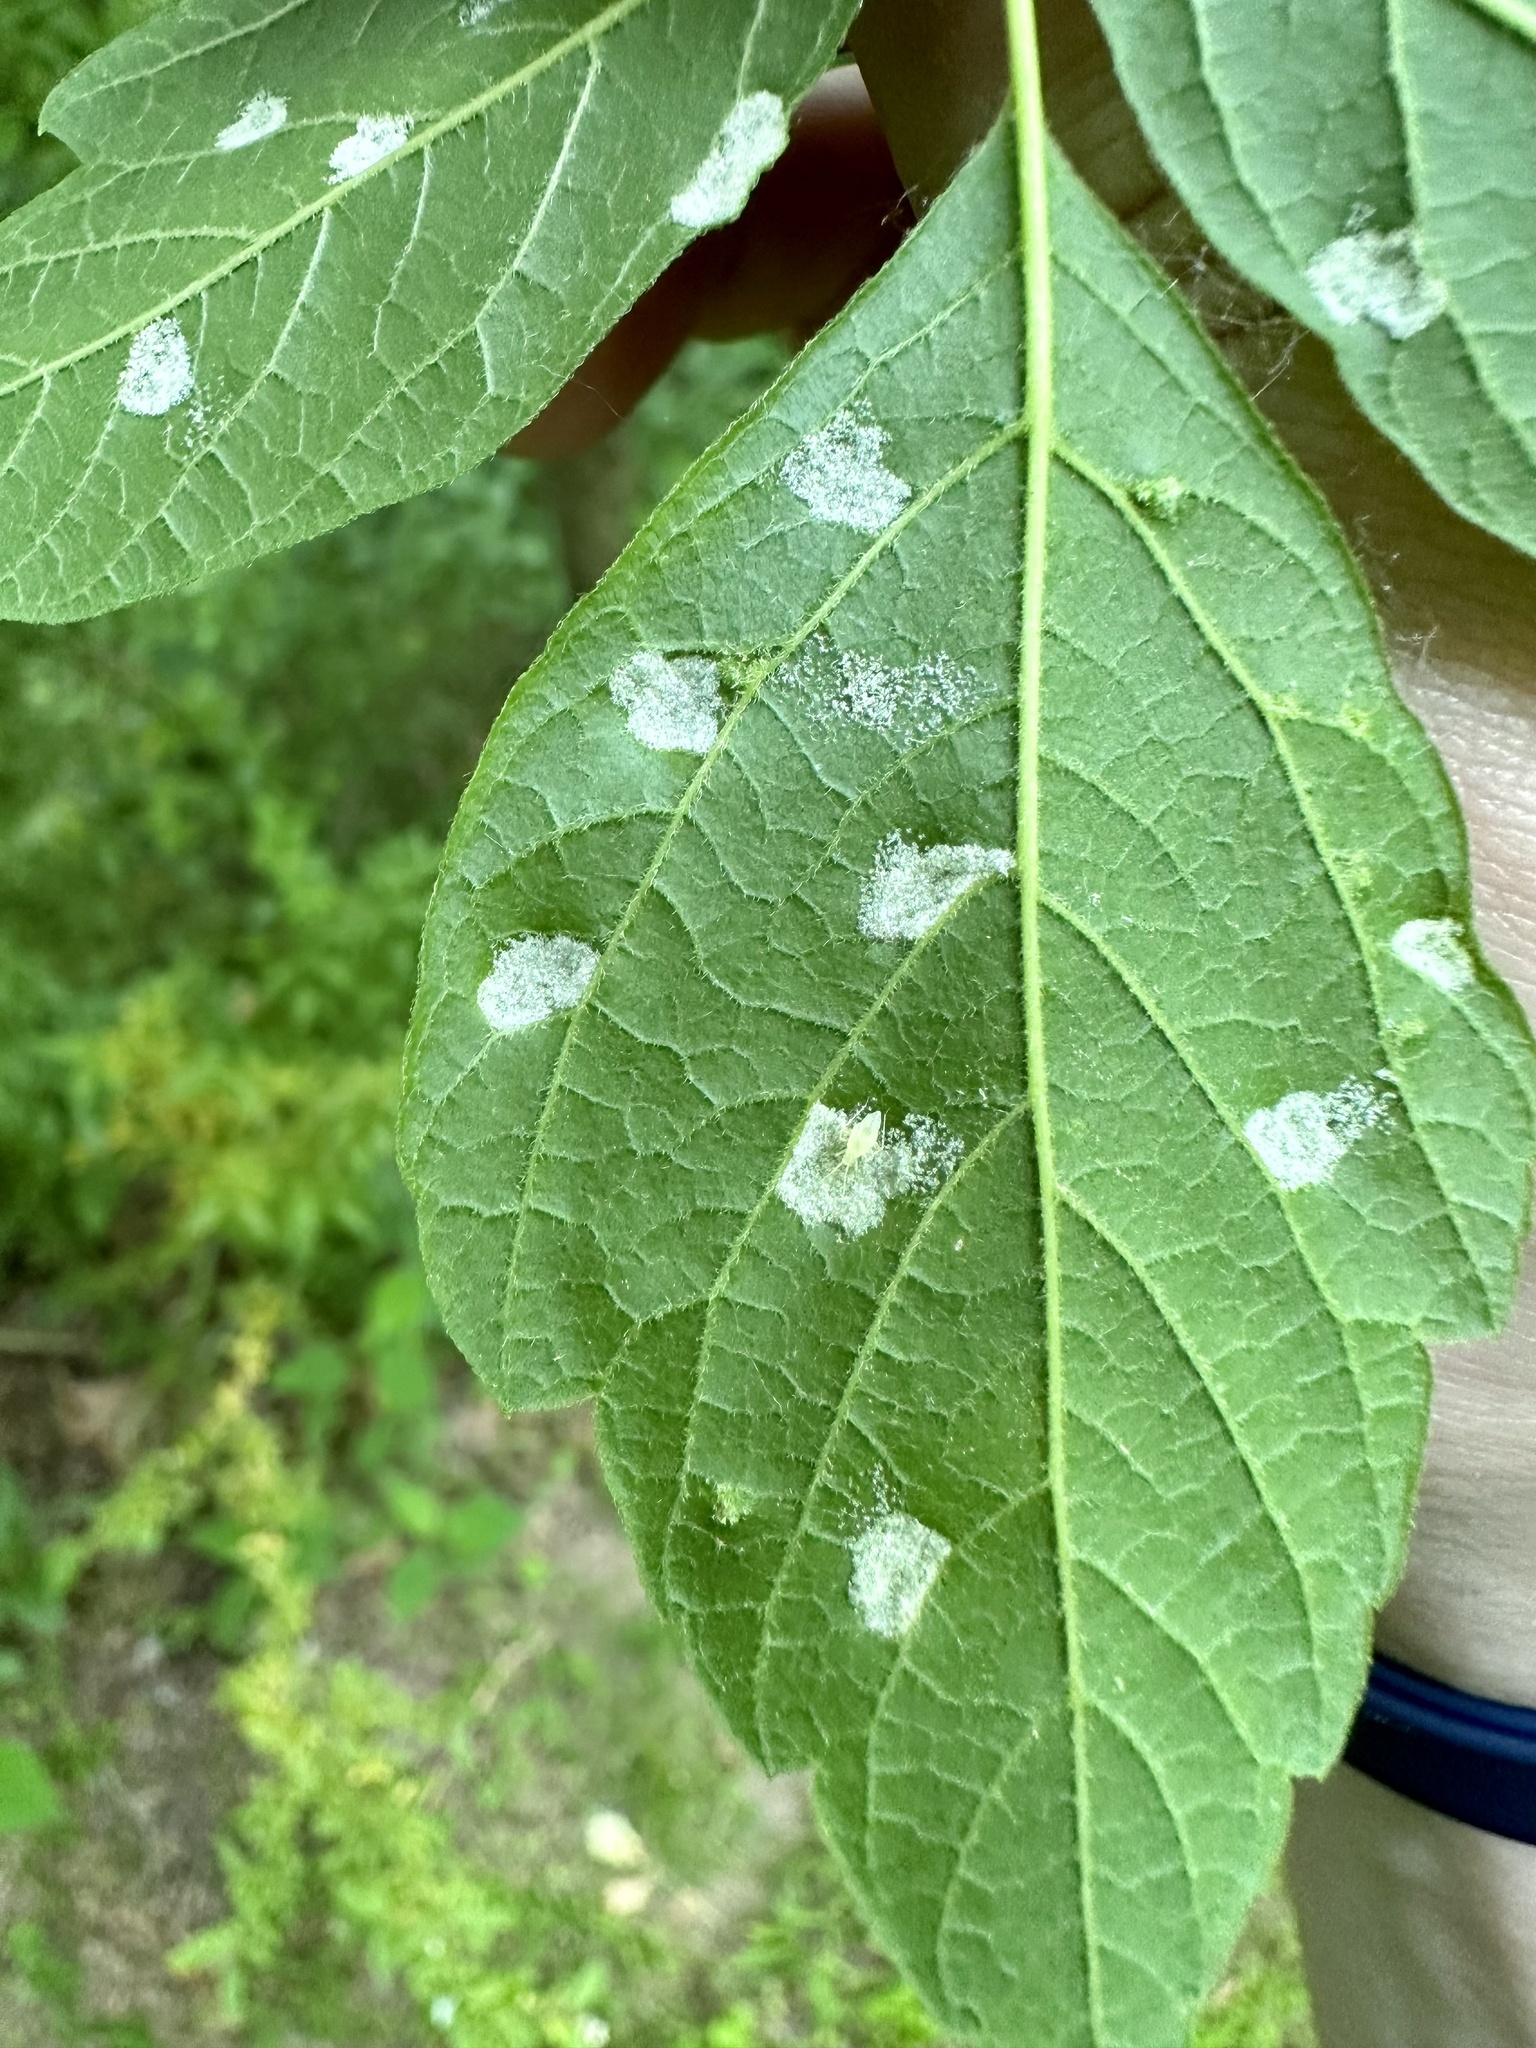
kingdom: Animalia
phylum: Arthropoda
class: Arachnida
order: Trombidiformes
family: Eriophyidae
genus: Aceria
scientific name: Aceria
